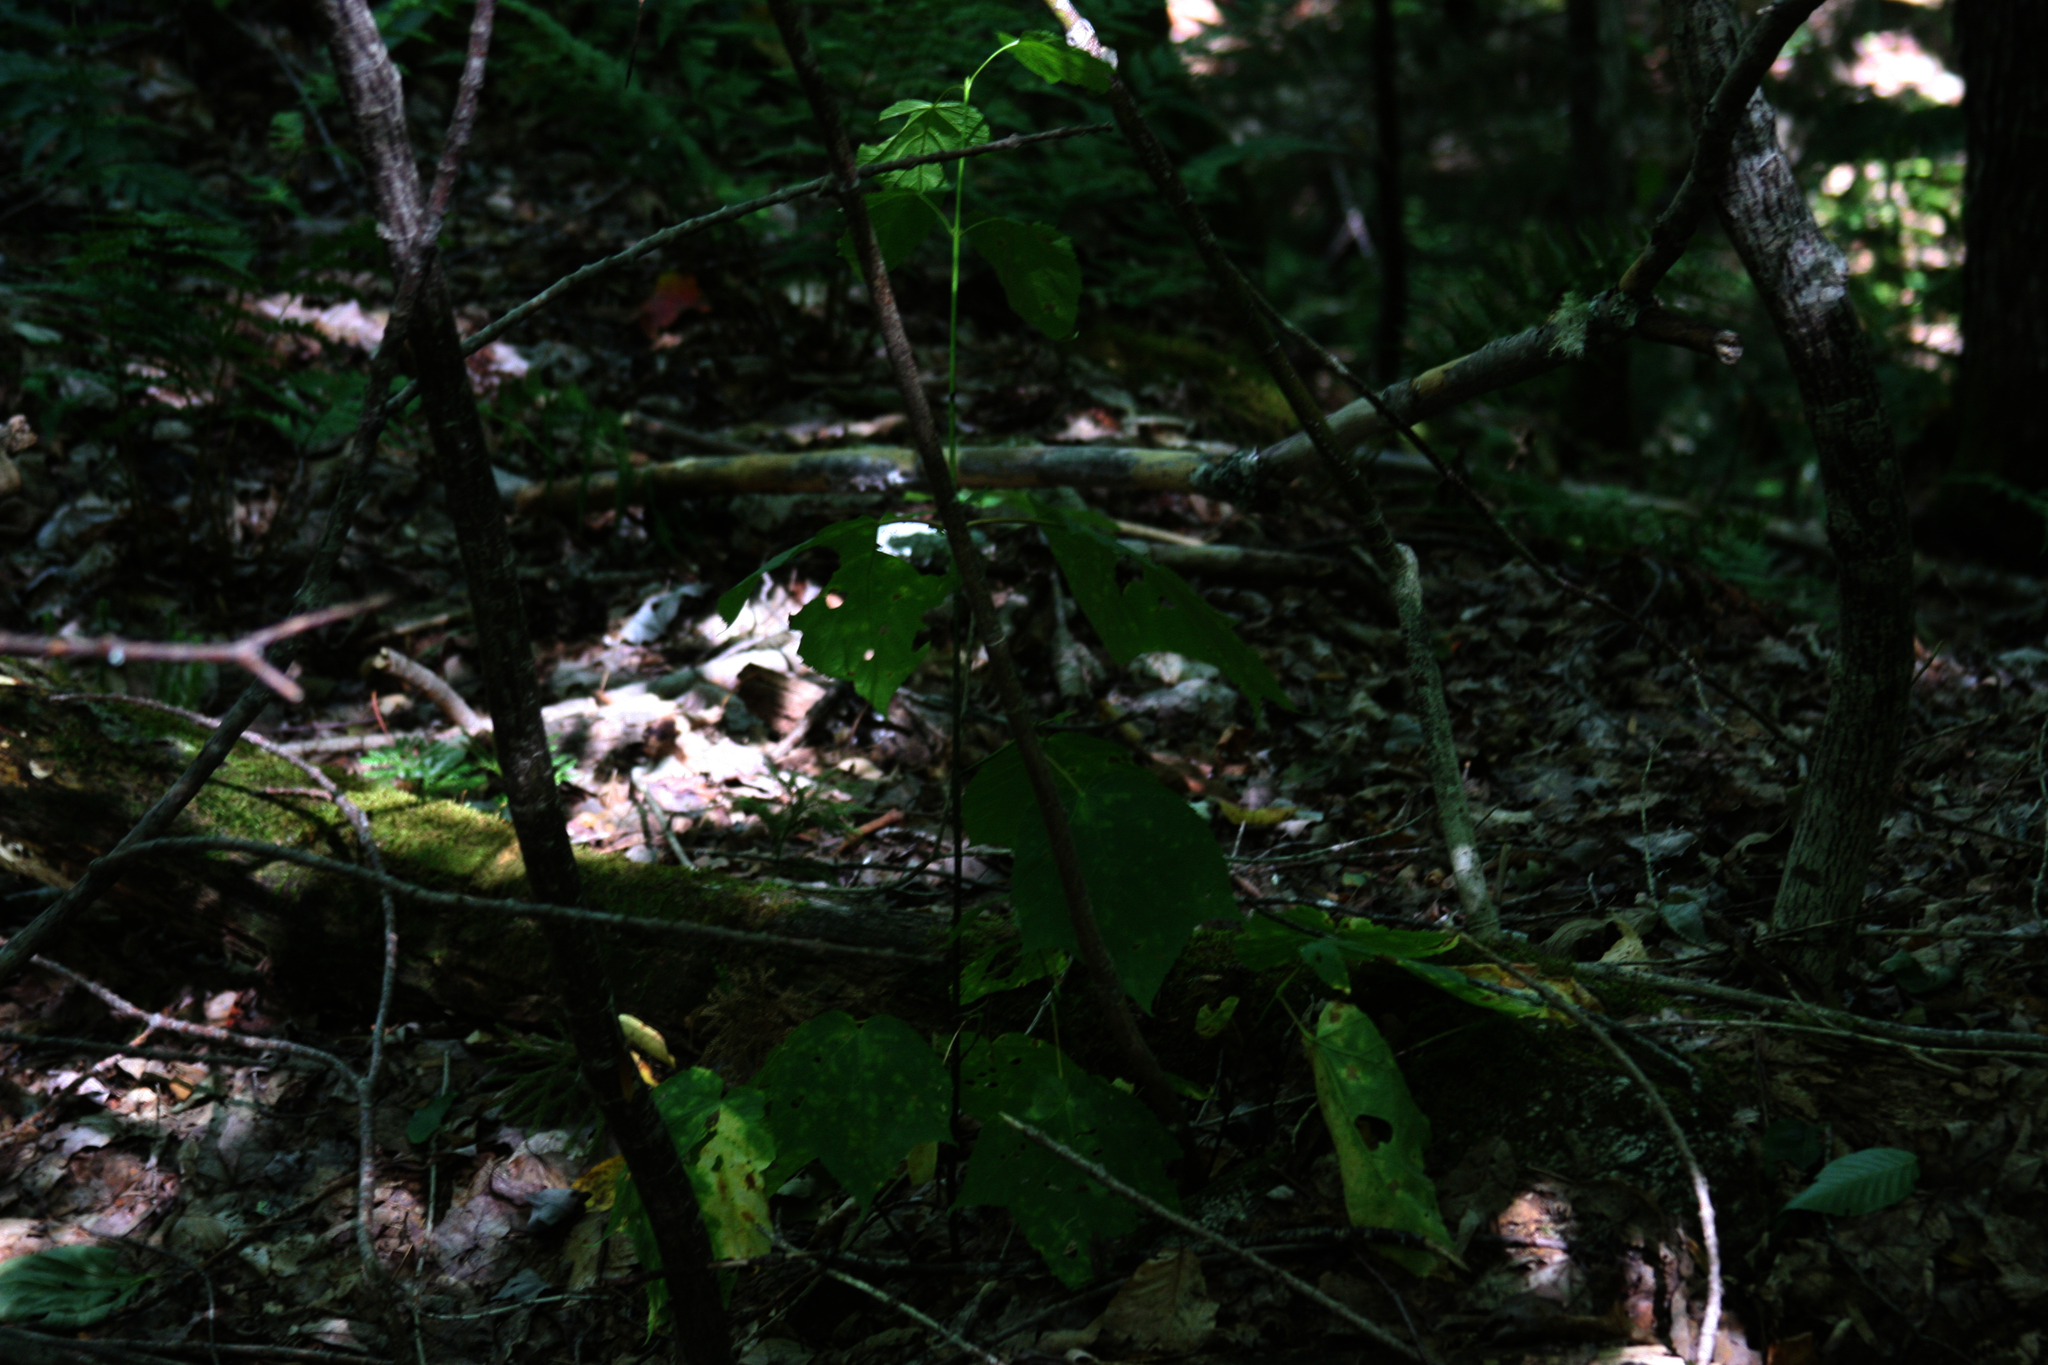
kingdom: Plantae
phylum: Tracheophyta
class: Magnoliopsida
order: Sapindales
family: Sapindaceae
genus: Acer
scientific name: Acer pensylvanicum
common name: Moosewood
